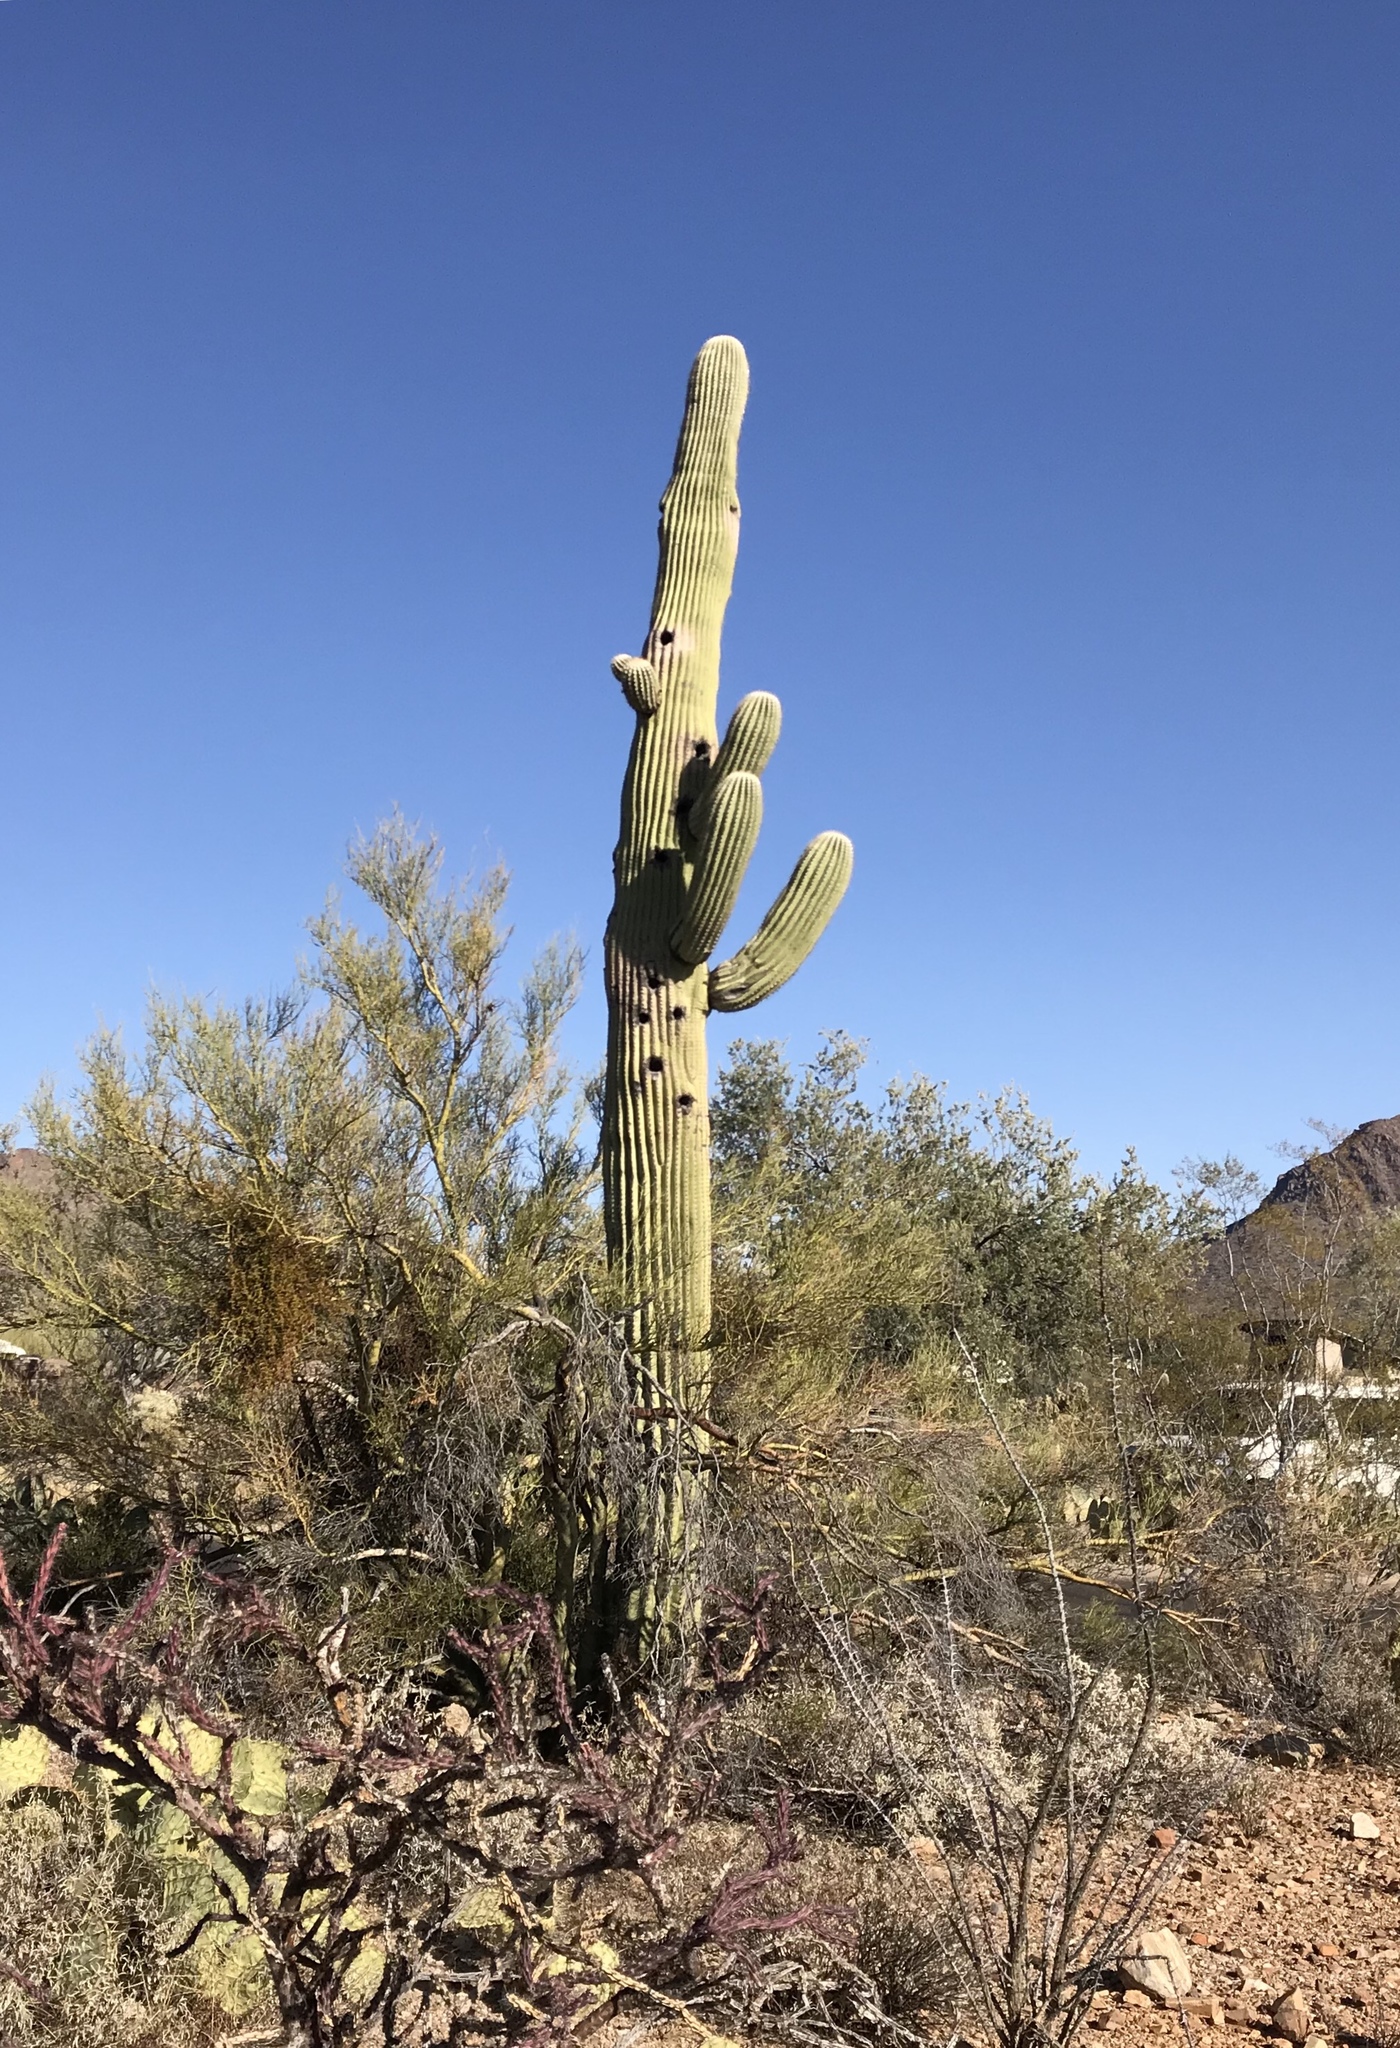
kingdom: Plantae
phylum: Tracheophyta
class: Magnoliopsida
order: Caryophyllales
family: Cactaceae
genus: Carnegiea
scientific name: Carnegiea gigantea
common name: Saguaro
